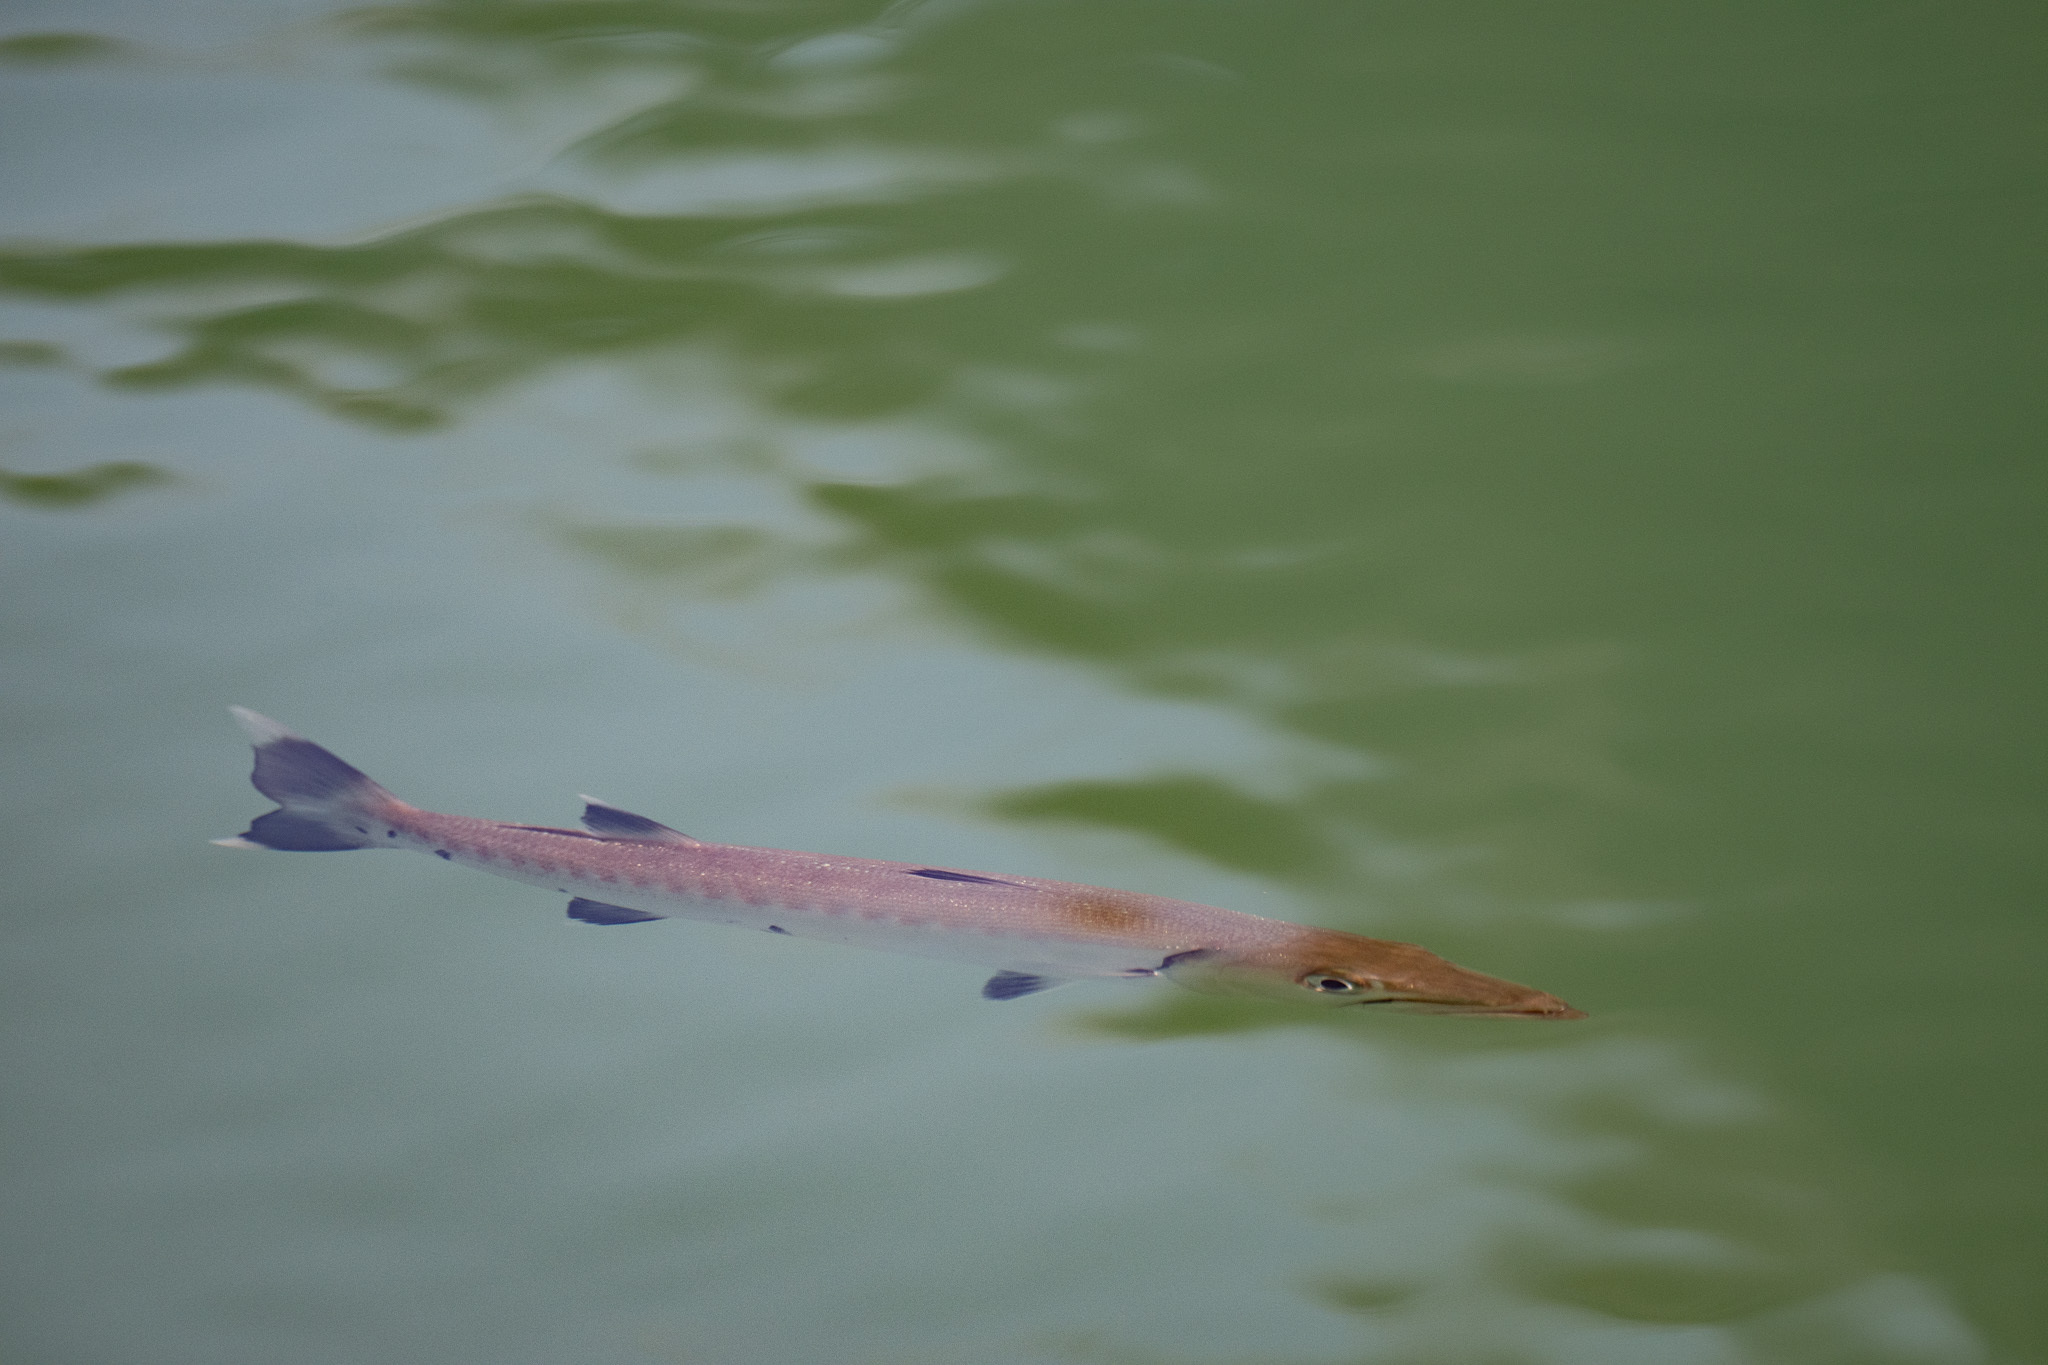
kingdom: Animalia
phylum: Chordata
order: Perciformes
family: Sphyraenidae
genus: Sphyraena
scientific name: Sphyraena barracuda
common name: Great barracuda
